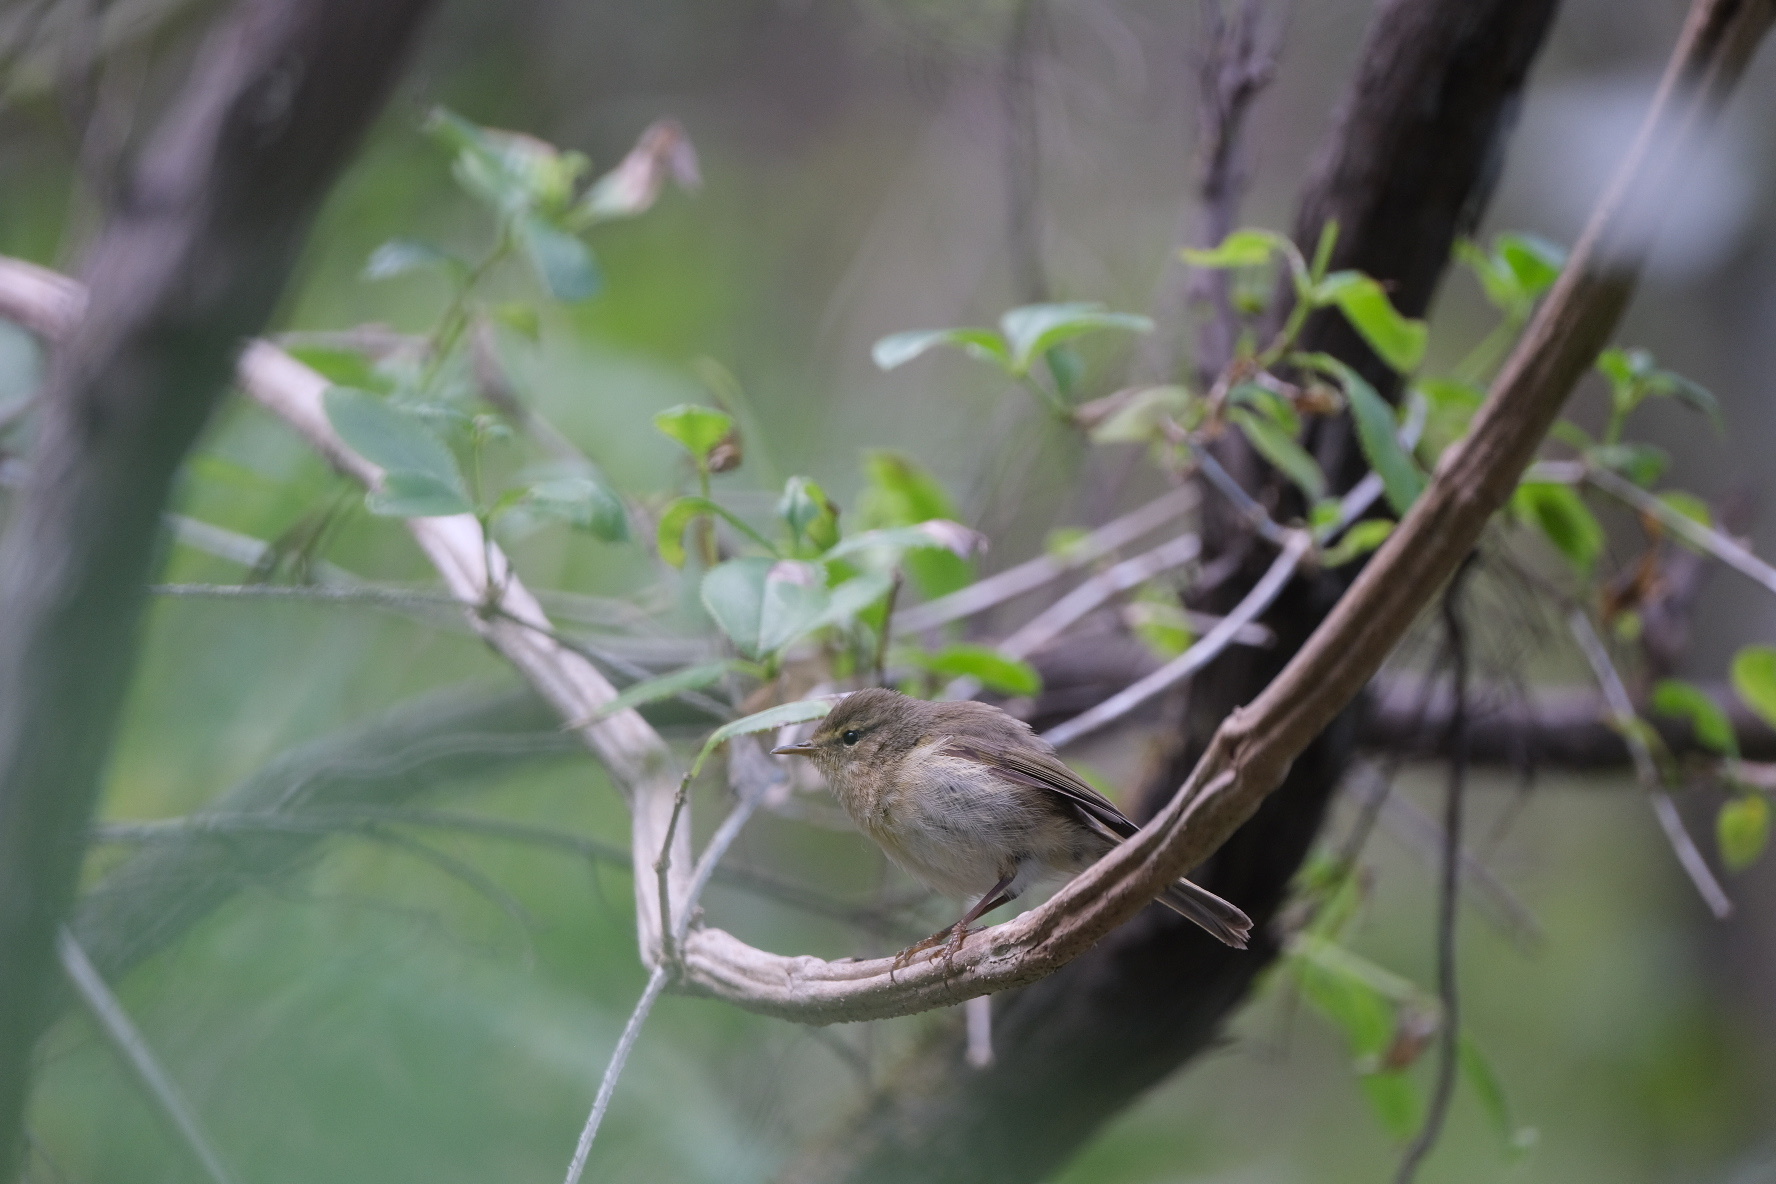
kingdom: Animalia
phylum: Chordata
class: Aves
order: Passeriformes
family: Phylloscopidae
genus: Phylloscopus
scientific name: Phylloscopus canariensis
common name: Canary islands chiffchaff
